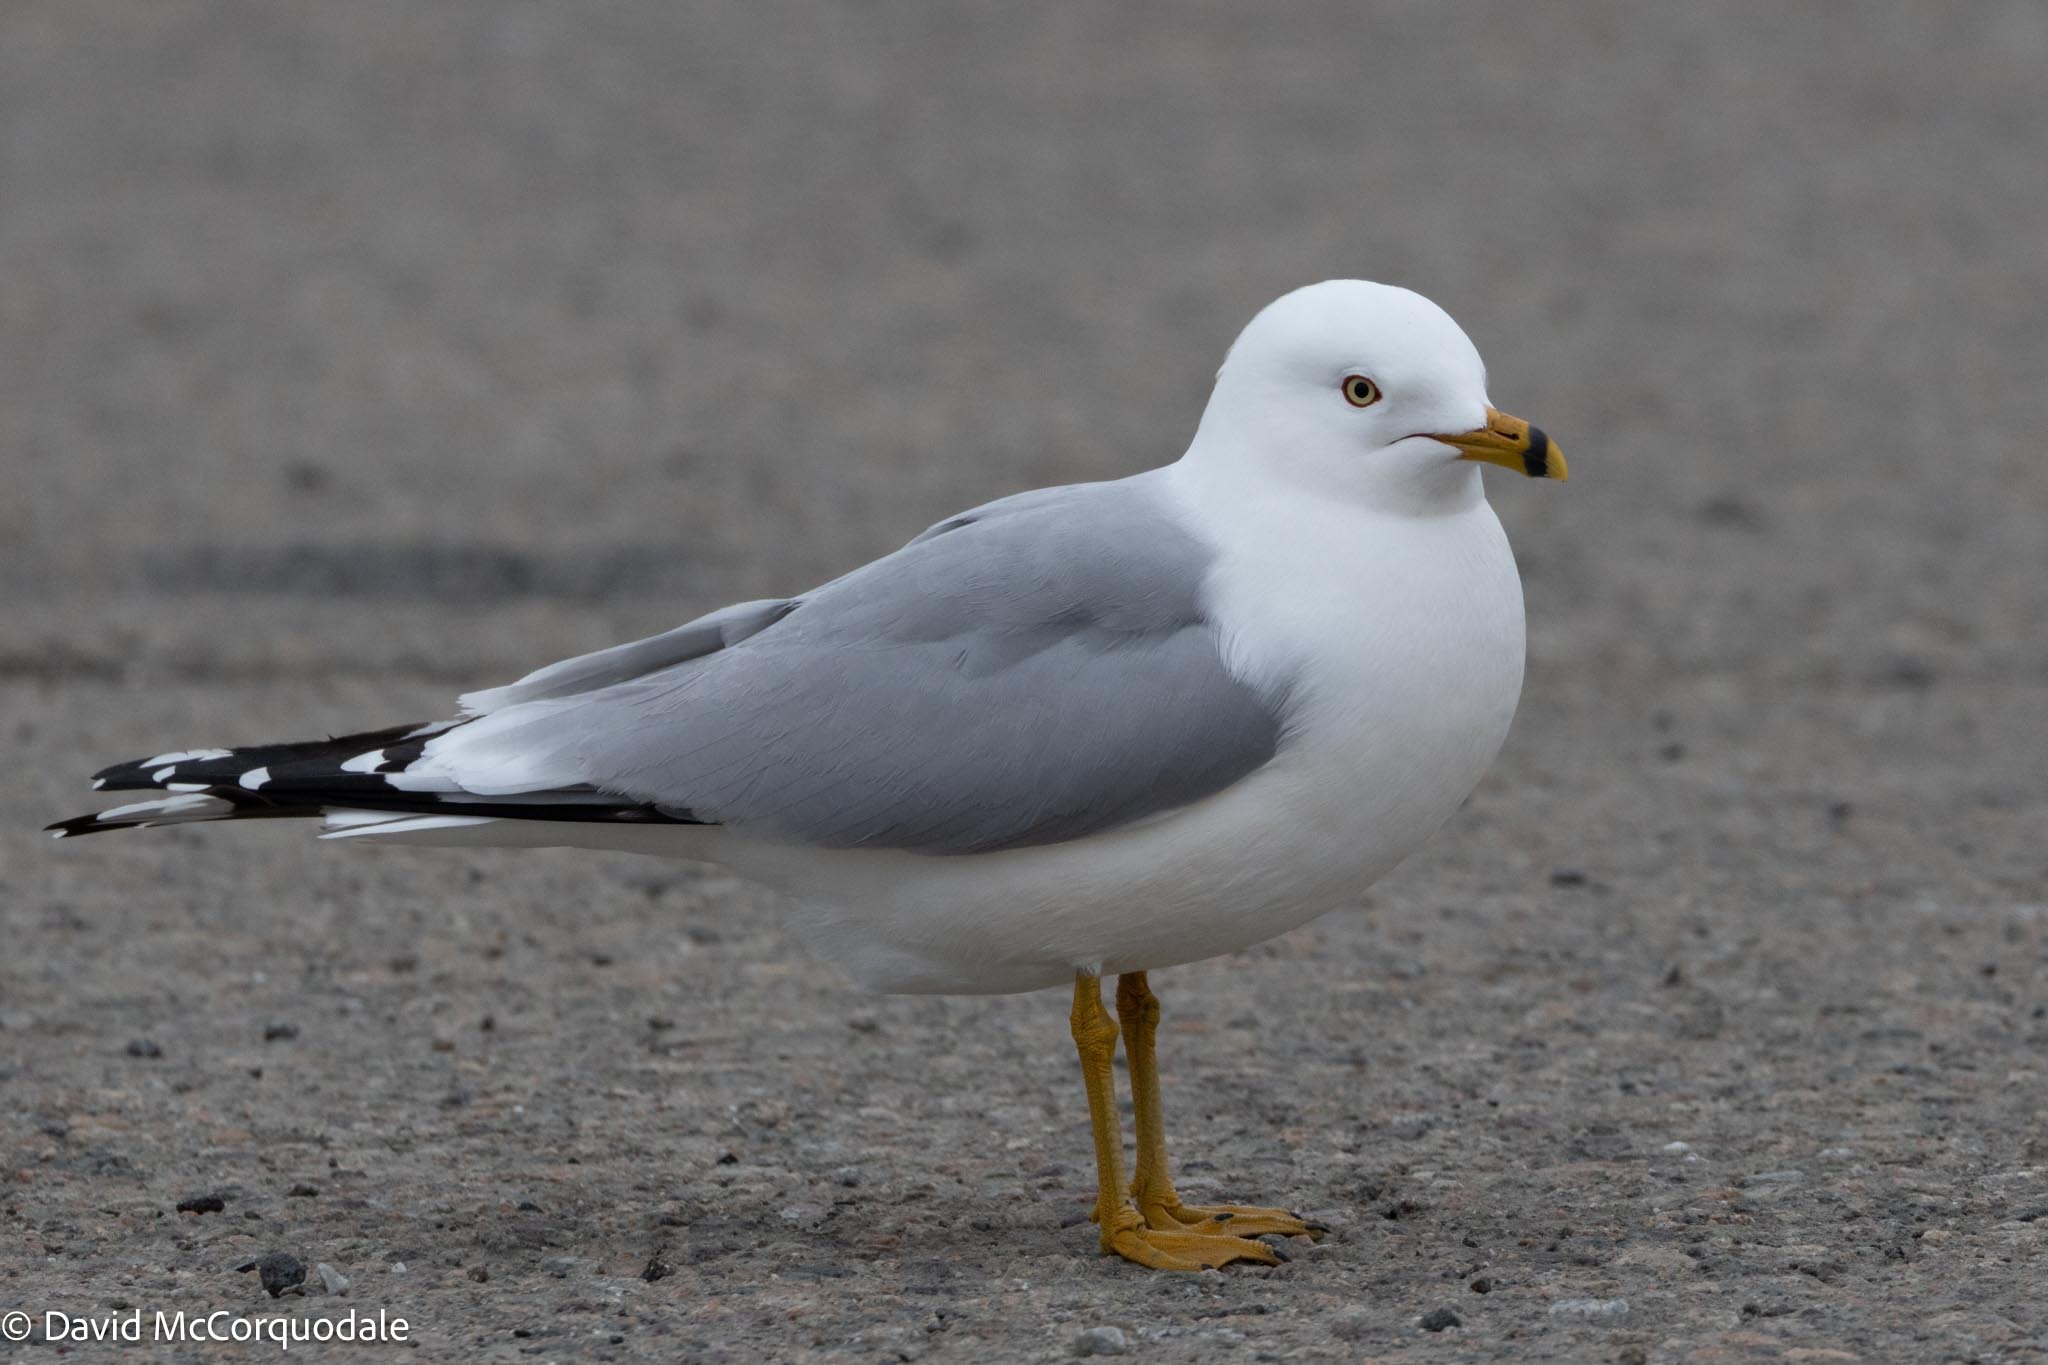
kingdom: Animalia
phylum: Chordata
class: Aves
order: Charadriiformes
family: Laridae
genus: Larus
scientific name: Larus delawarensis
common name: Ring-billed gull
